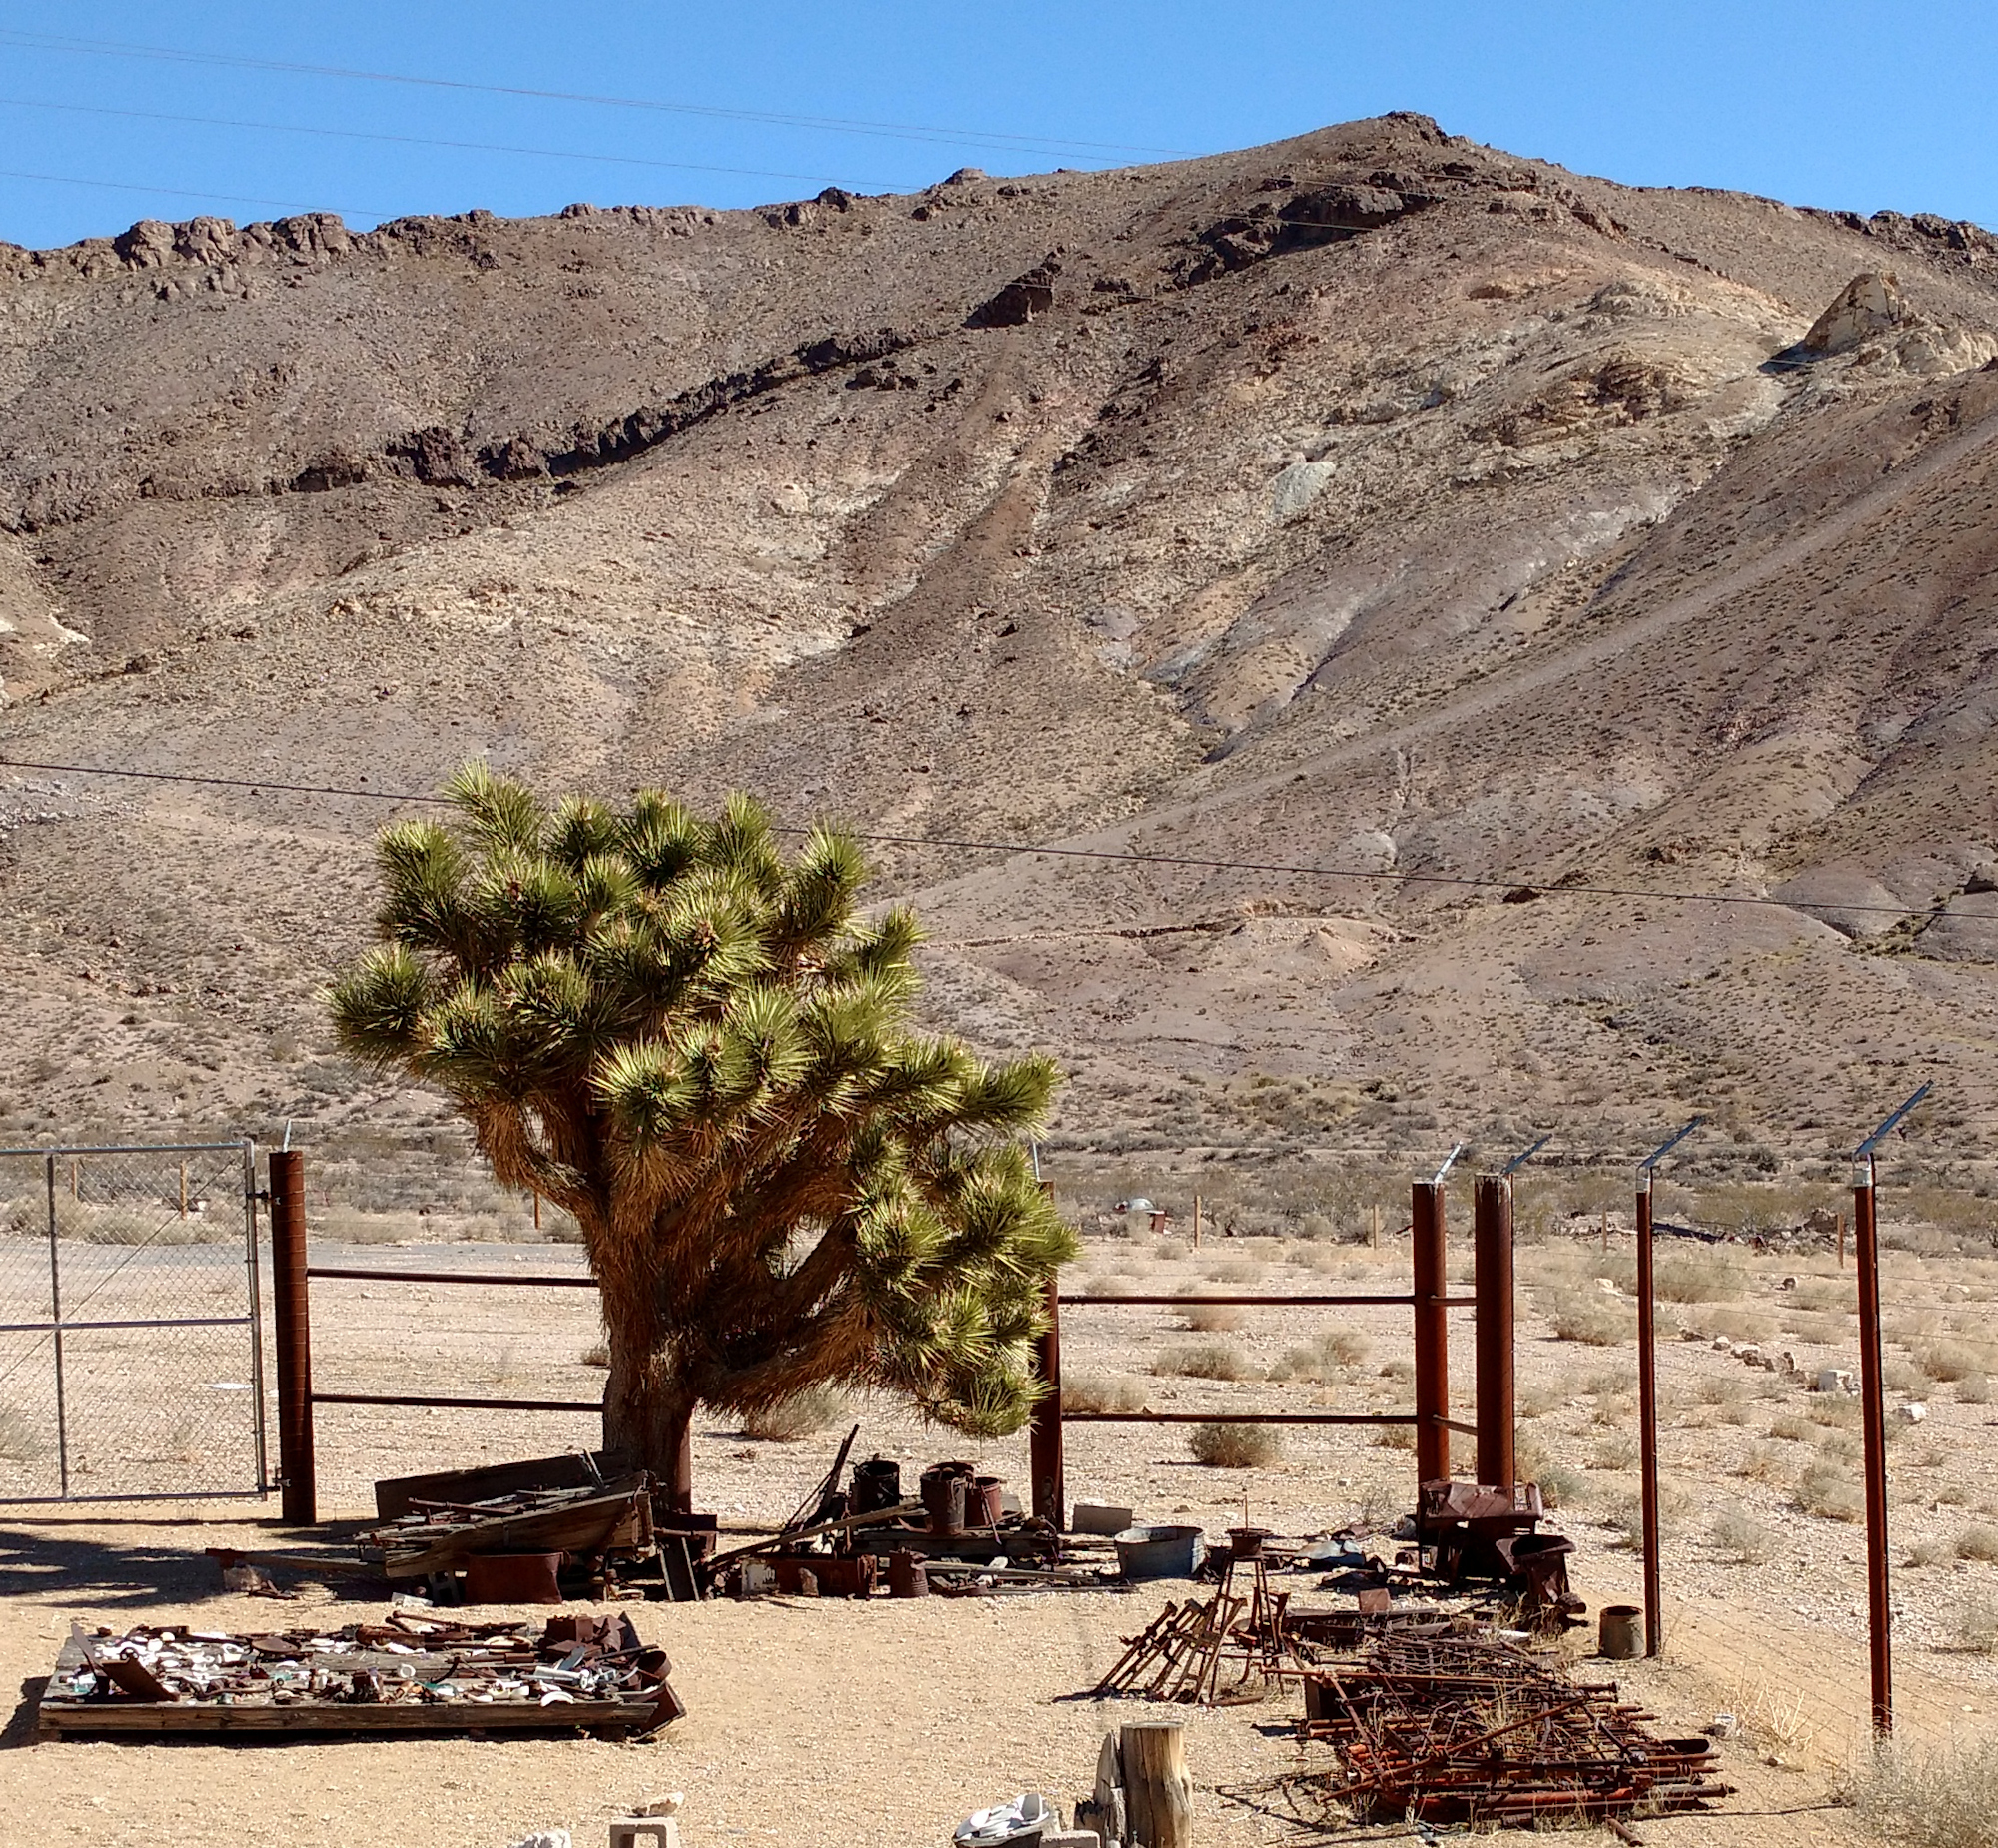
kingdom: Plantae
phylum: Tracheophyta
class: Liliopsida
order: Asparagales
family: Asparagaceae
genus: Yucca
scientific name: Yucca brevifolia
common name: Joshua tree
